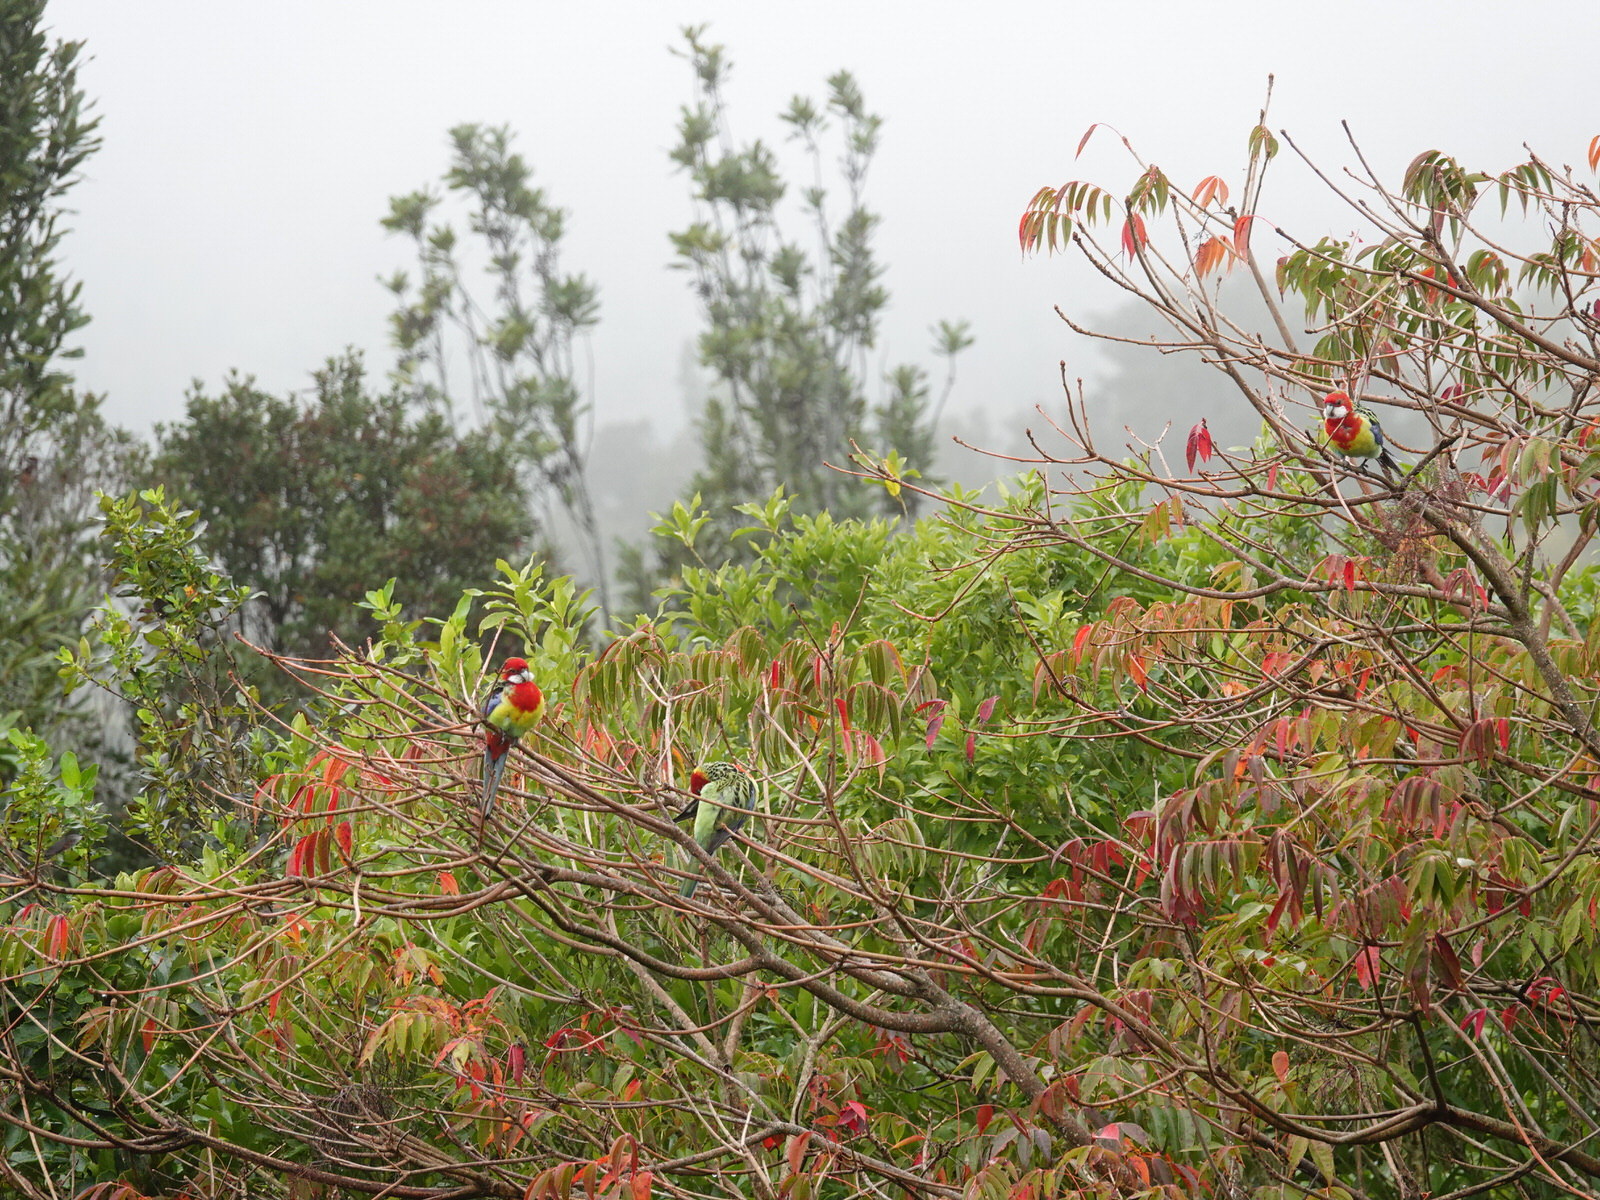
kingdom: Animalia
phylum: Chordata
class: Aves
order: Psittaciformes
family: Psittacidae
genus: Platycercus
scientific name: Platycercus eximius
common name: Eastern rosella
